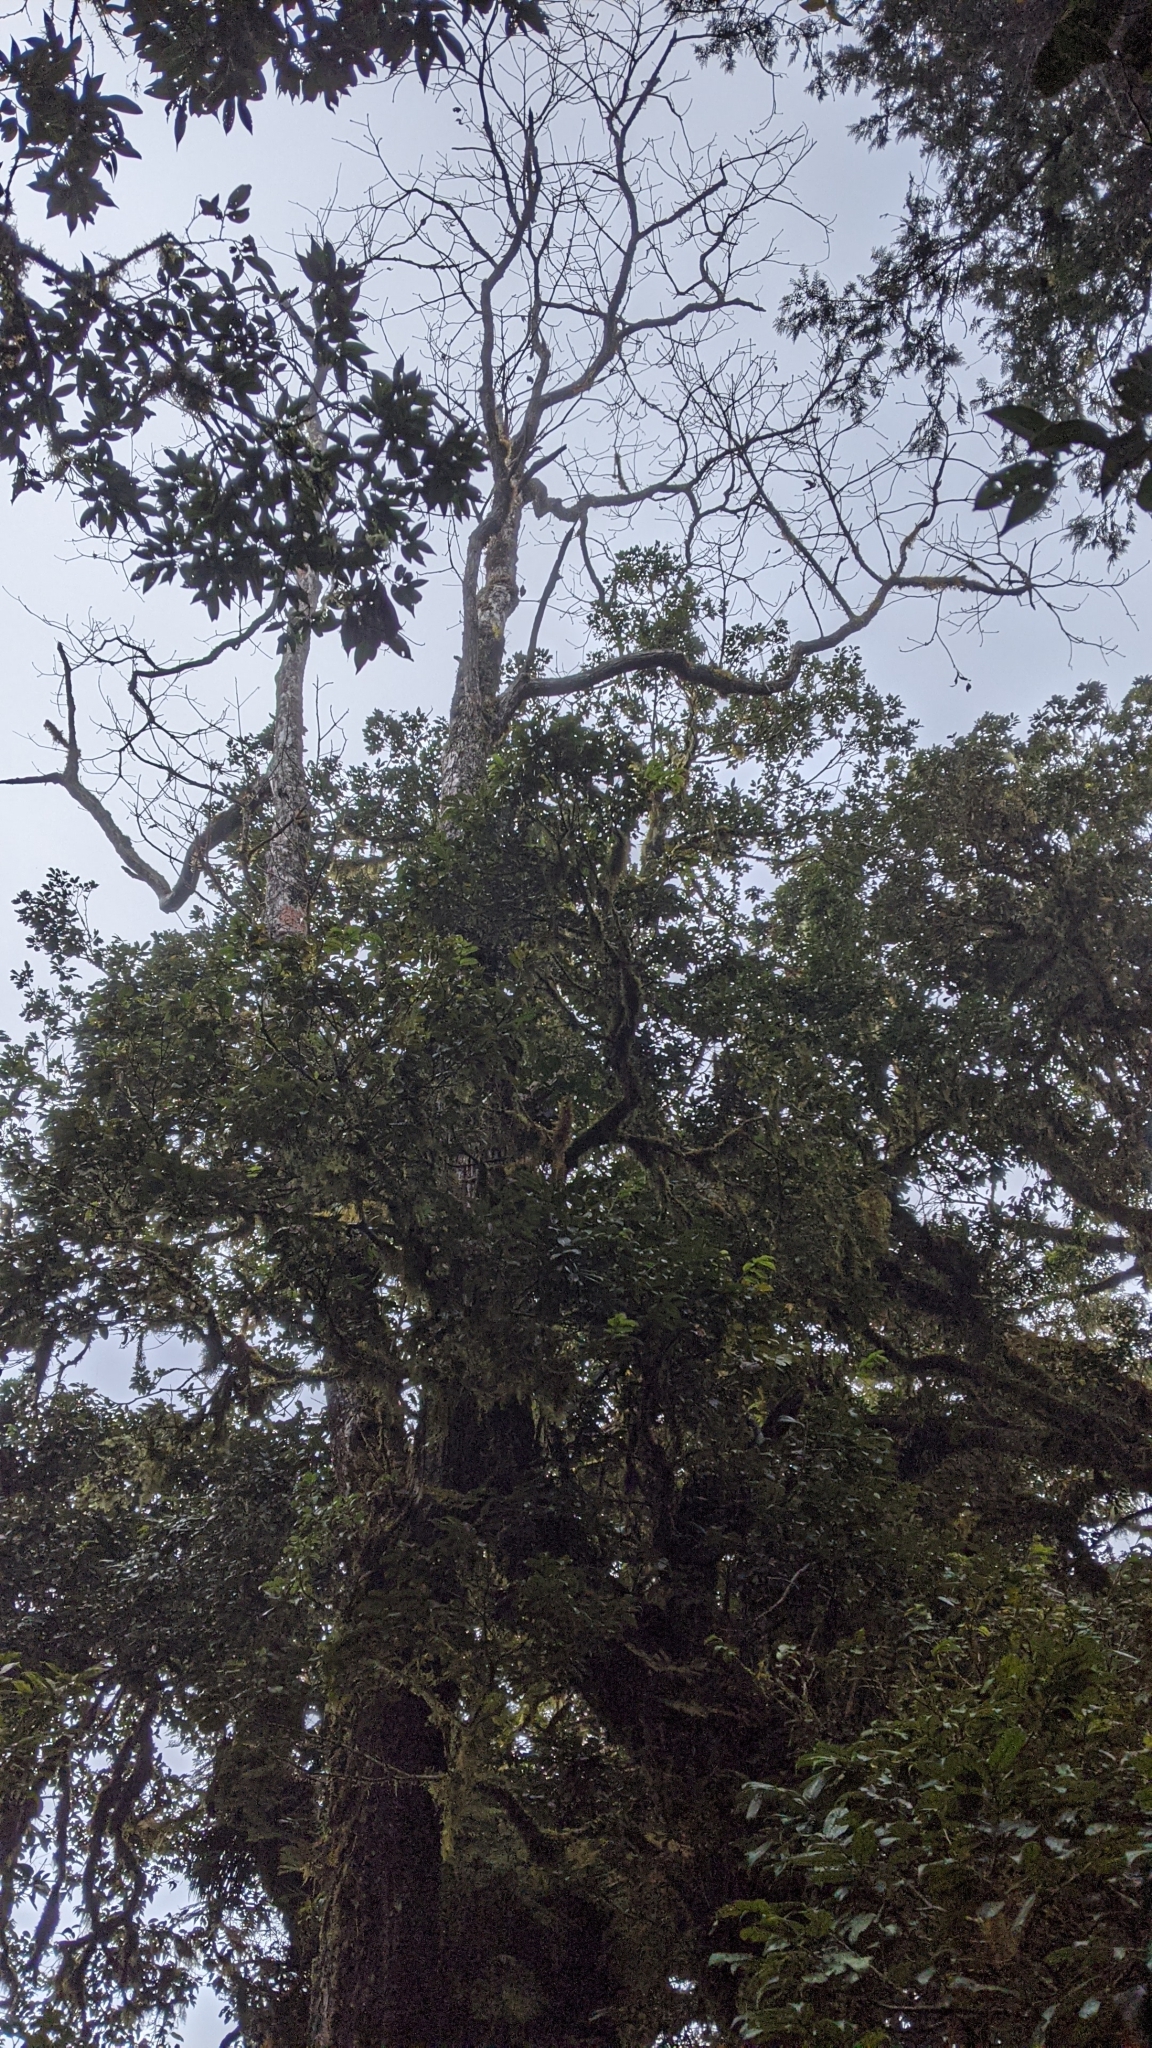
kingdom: Plantae
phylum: Tracheophyta
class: Magnoliopsida
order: Laurales
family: Lauraceae
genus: Sassafras
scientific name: Sassafras randaiense
